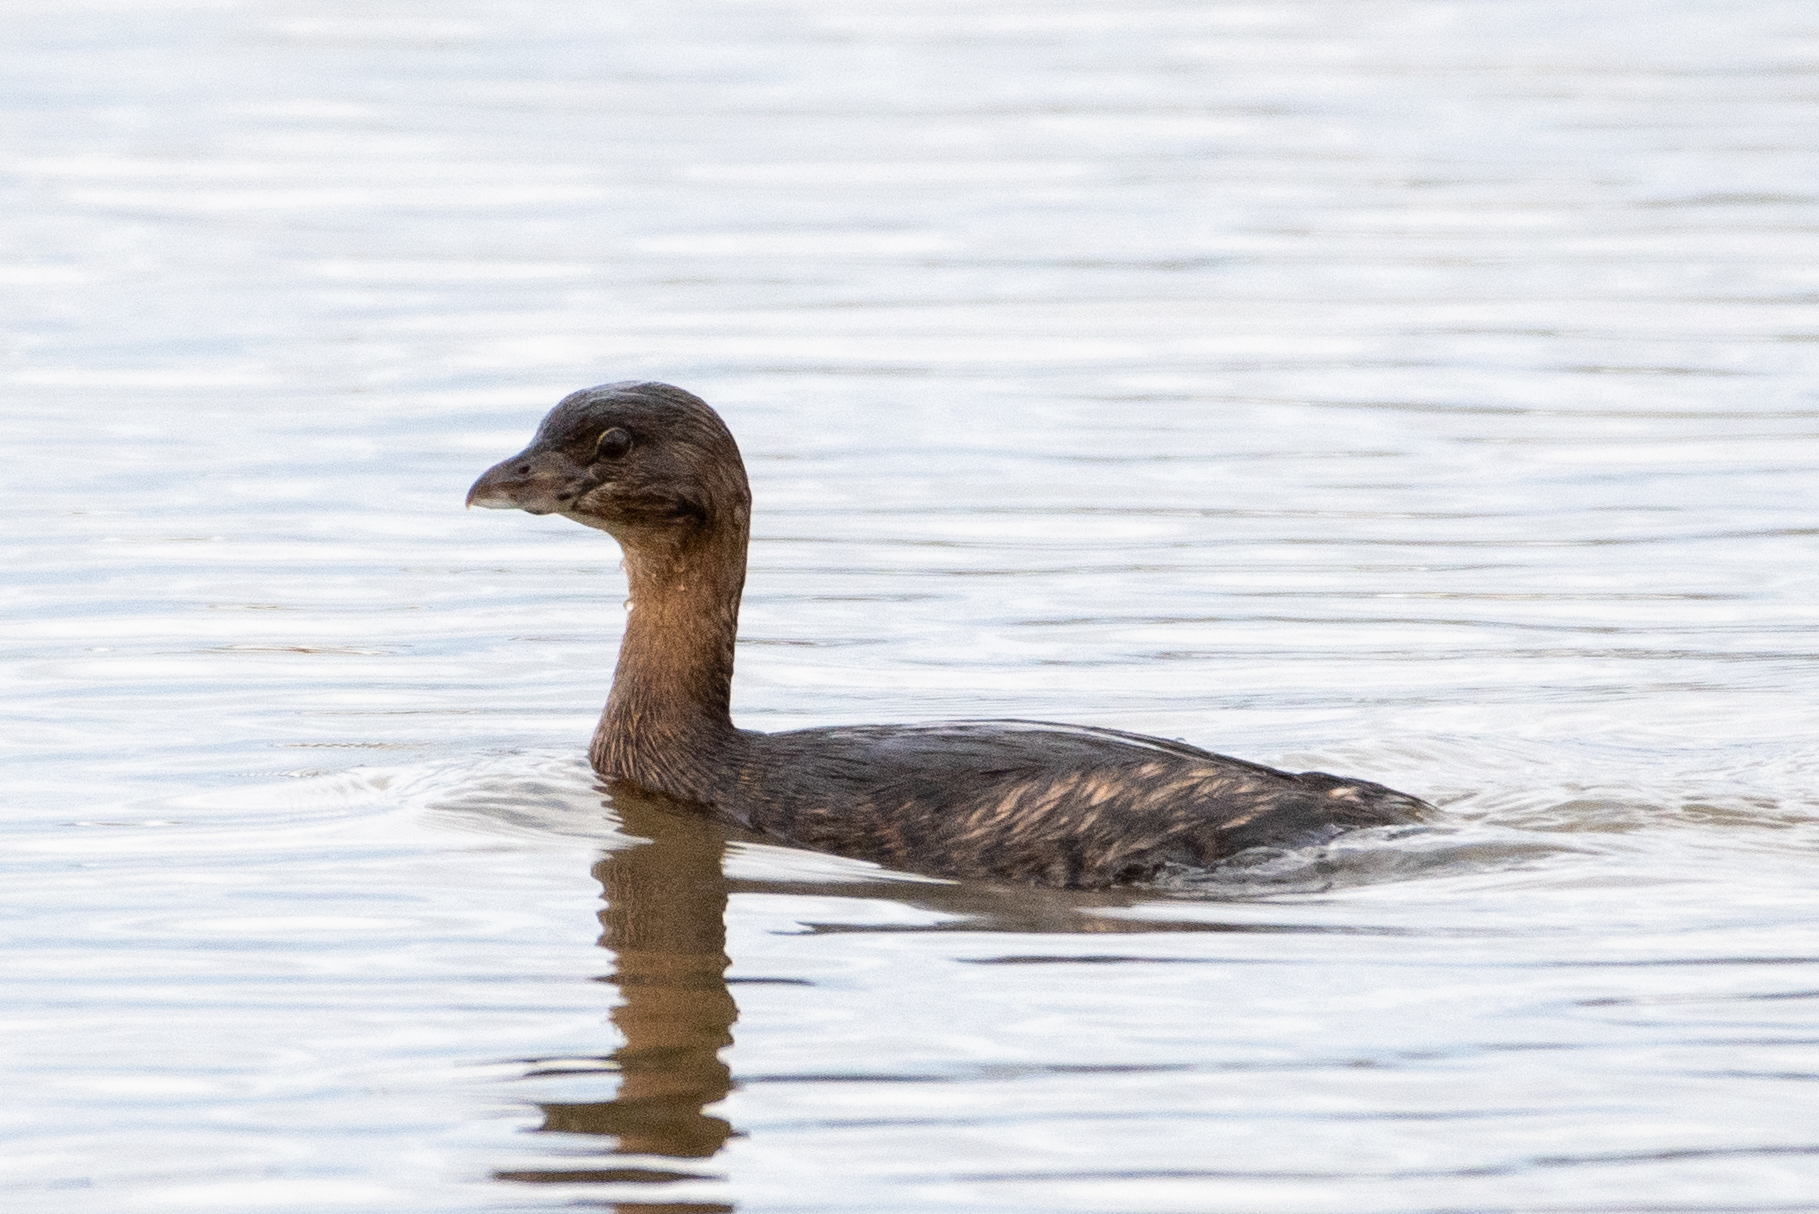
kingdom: Animalia
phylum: Chordata
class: Aves
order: Podicipediformes
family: Podicipedidae
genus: Podilymbus
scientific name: Podilymbus podiceps
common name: Pied-billed grebe
